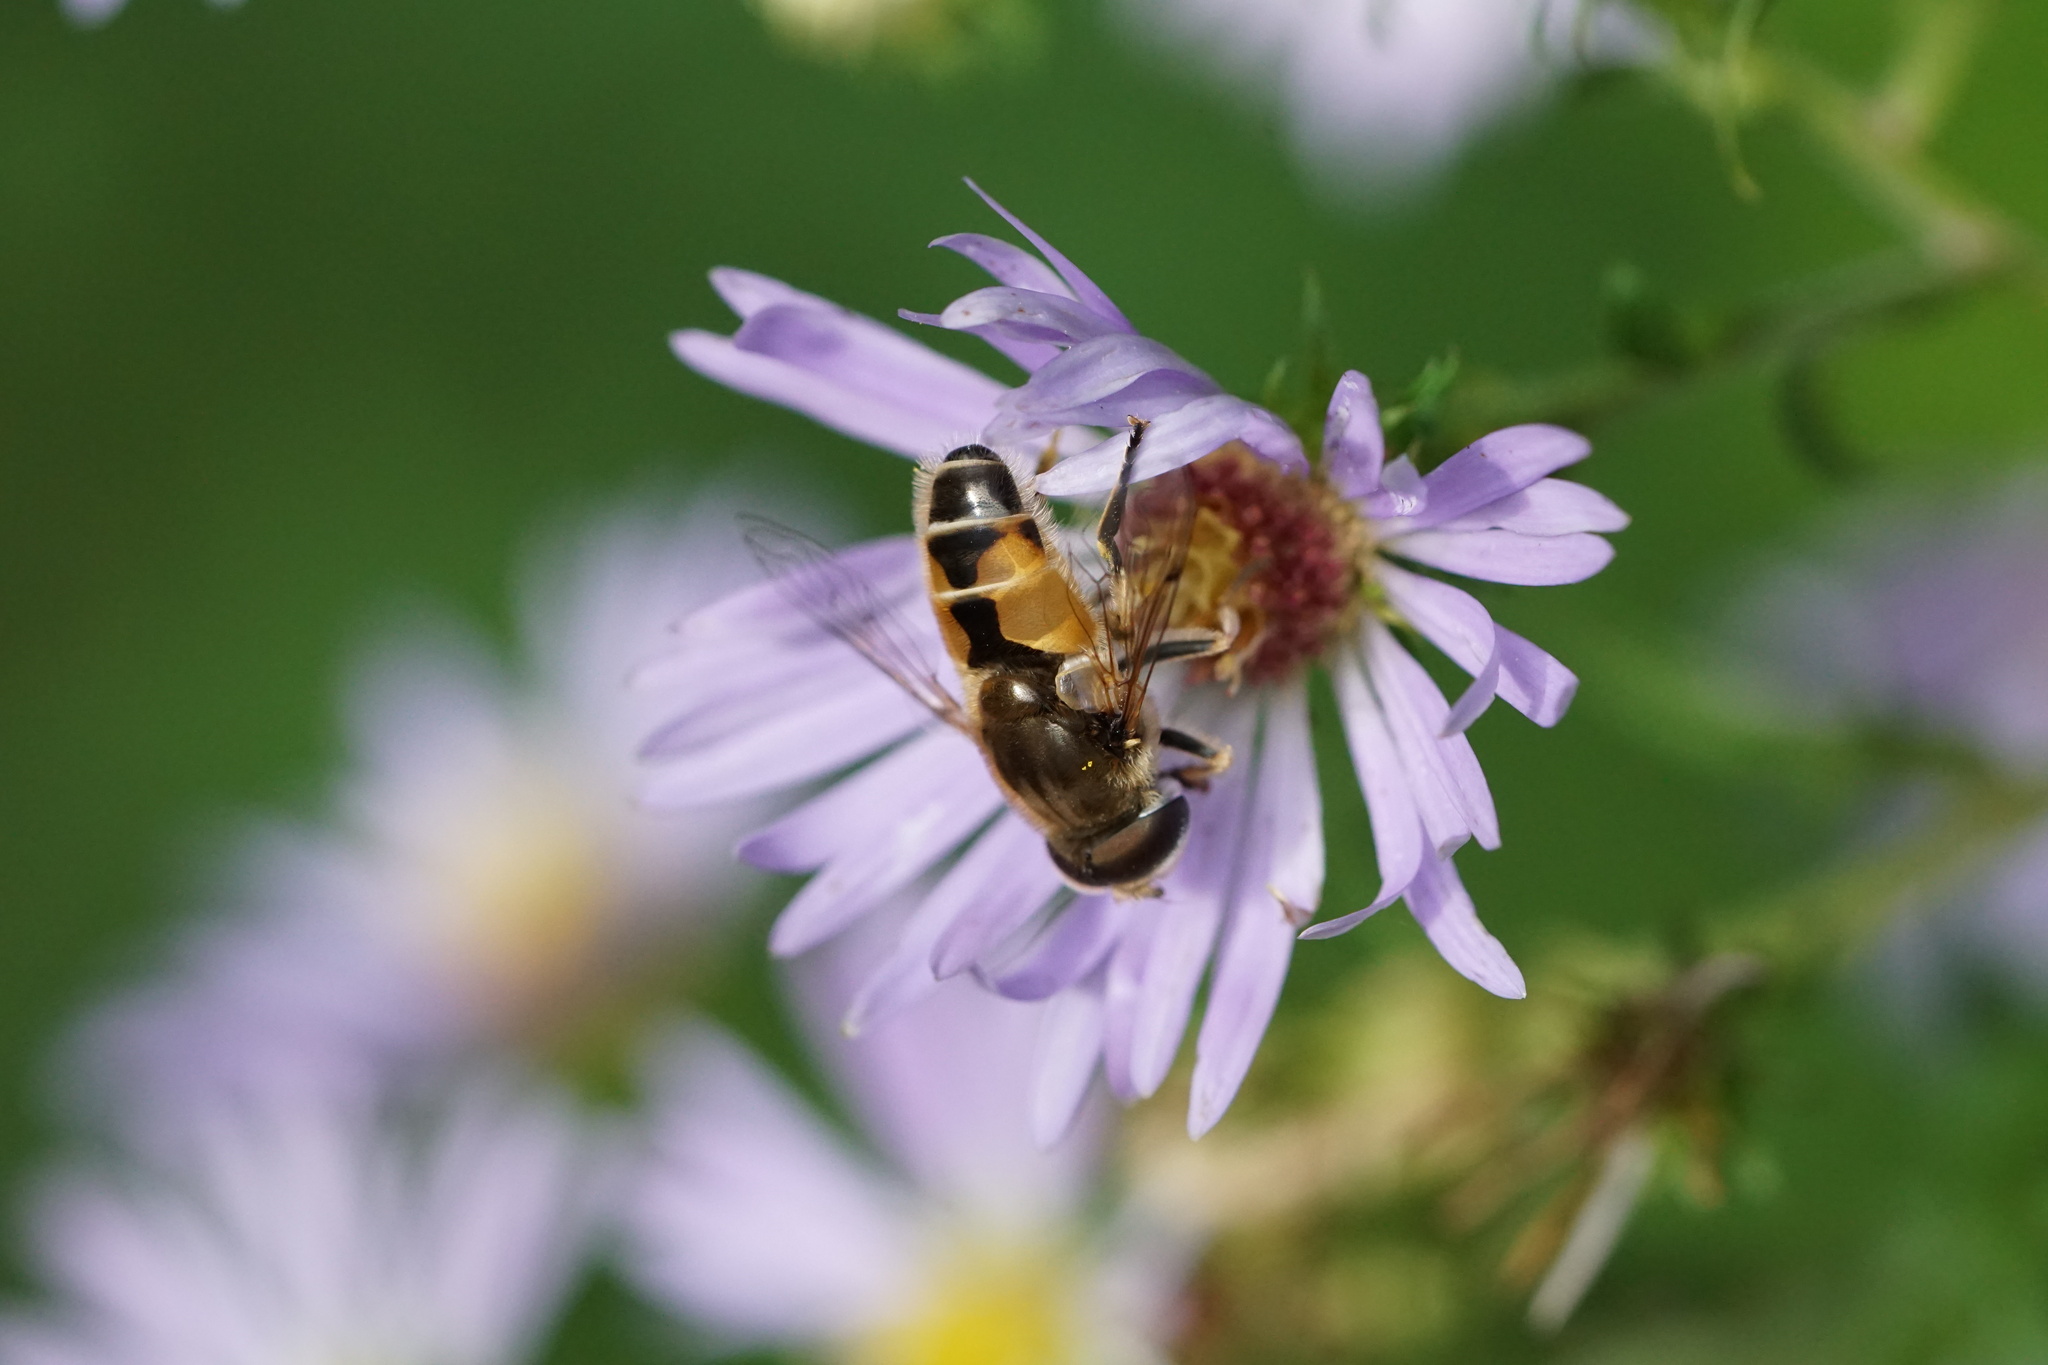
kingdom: Animalia
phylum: Arthropoda
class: Insecta
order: Diptera
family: Syrphidae
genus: Eristalis
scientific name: Eristalis arbustorum
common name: Hover fly
